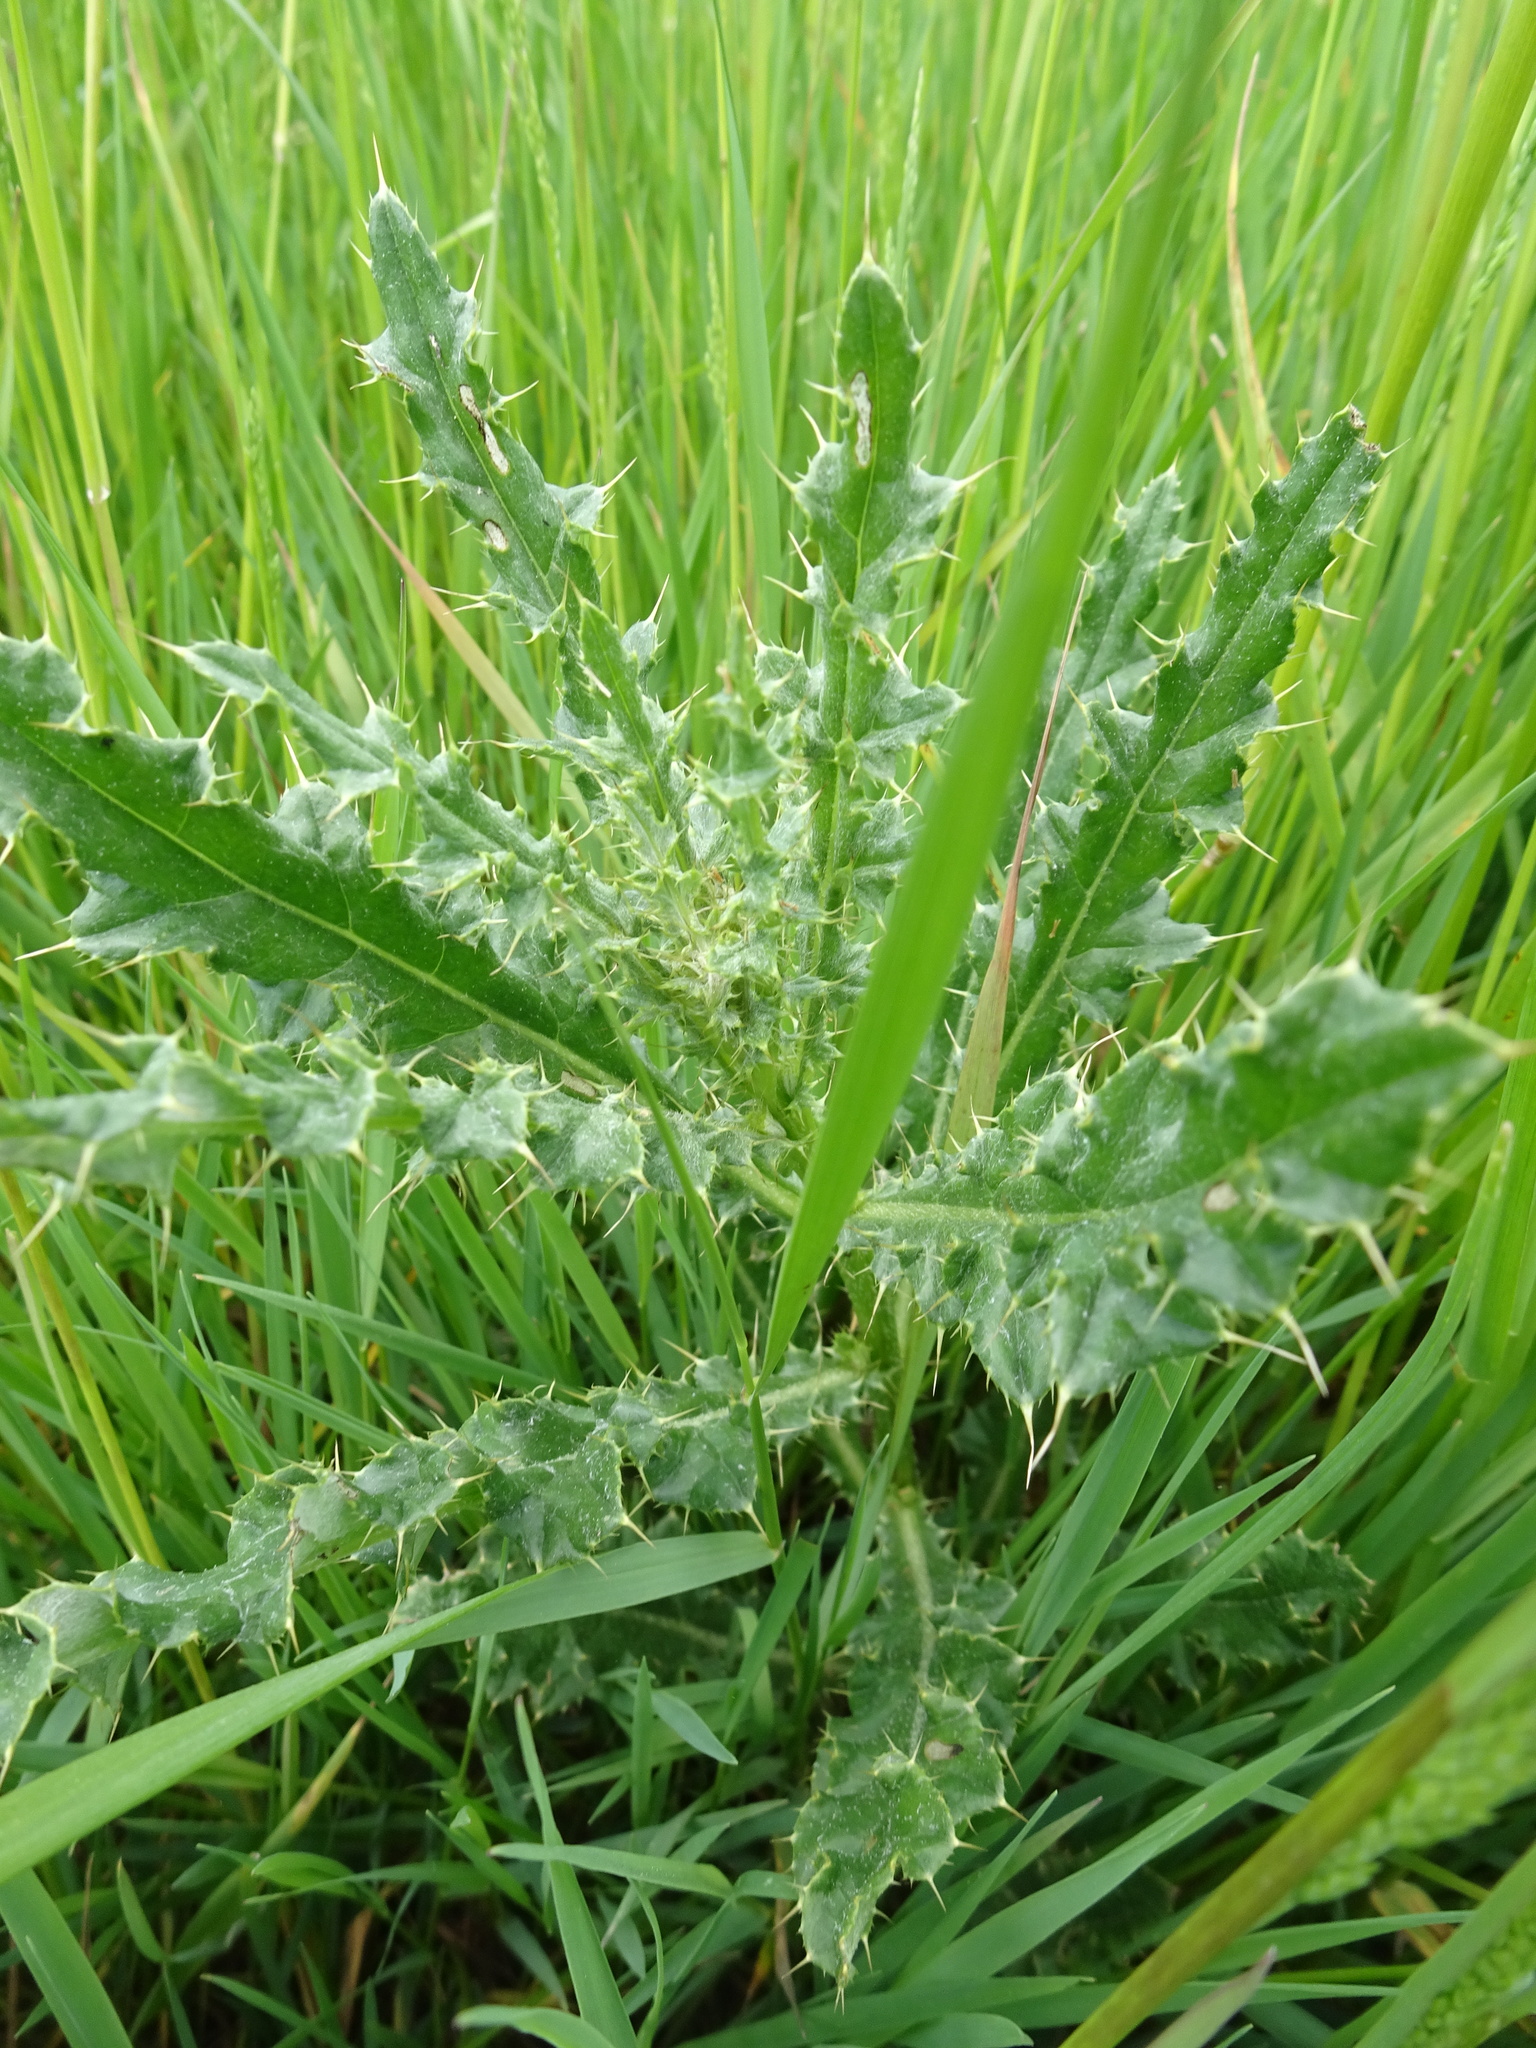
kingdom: Plantae
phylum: Tracheophyta
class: Magnoliopsida
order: Asterales
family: Asteraceae
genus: Cirsium
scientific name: Cirsium arvense
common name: Creeping thistle
